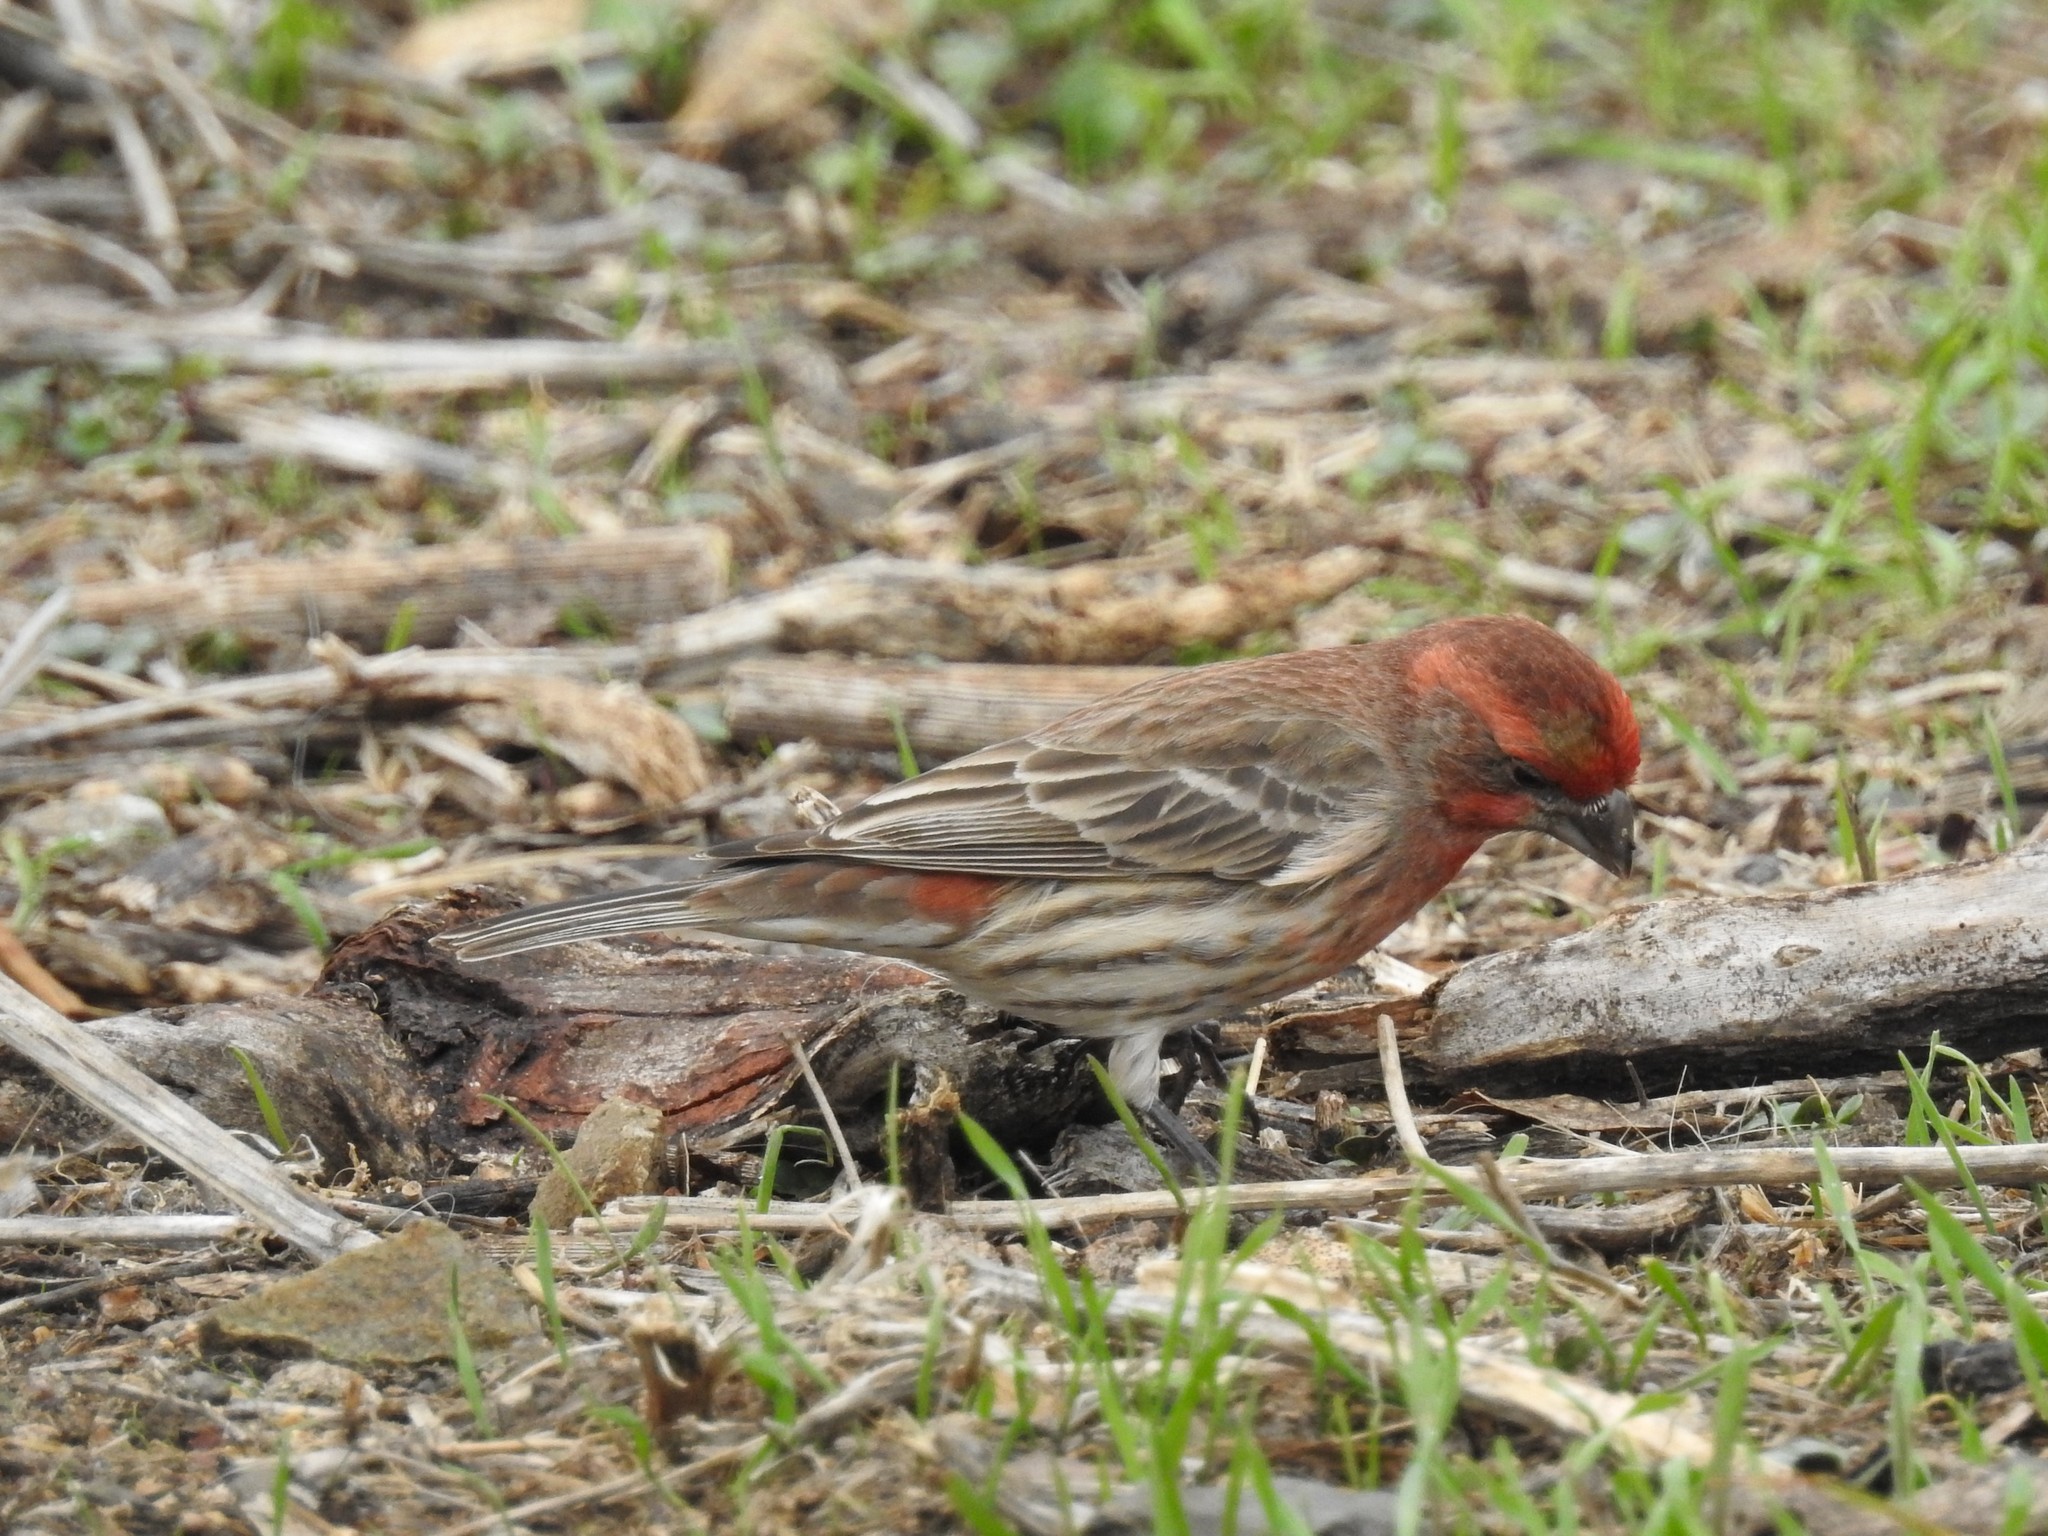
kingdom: Animalia
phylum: Chordata
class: Aves
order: Passeriformes
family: Fringillidae
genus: Haemorhous
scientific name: Haemorhous mexicanus
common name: House finch
